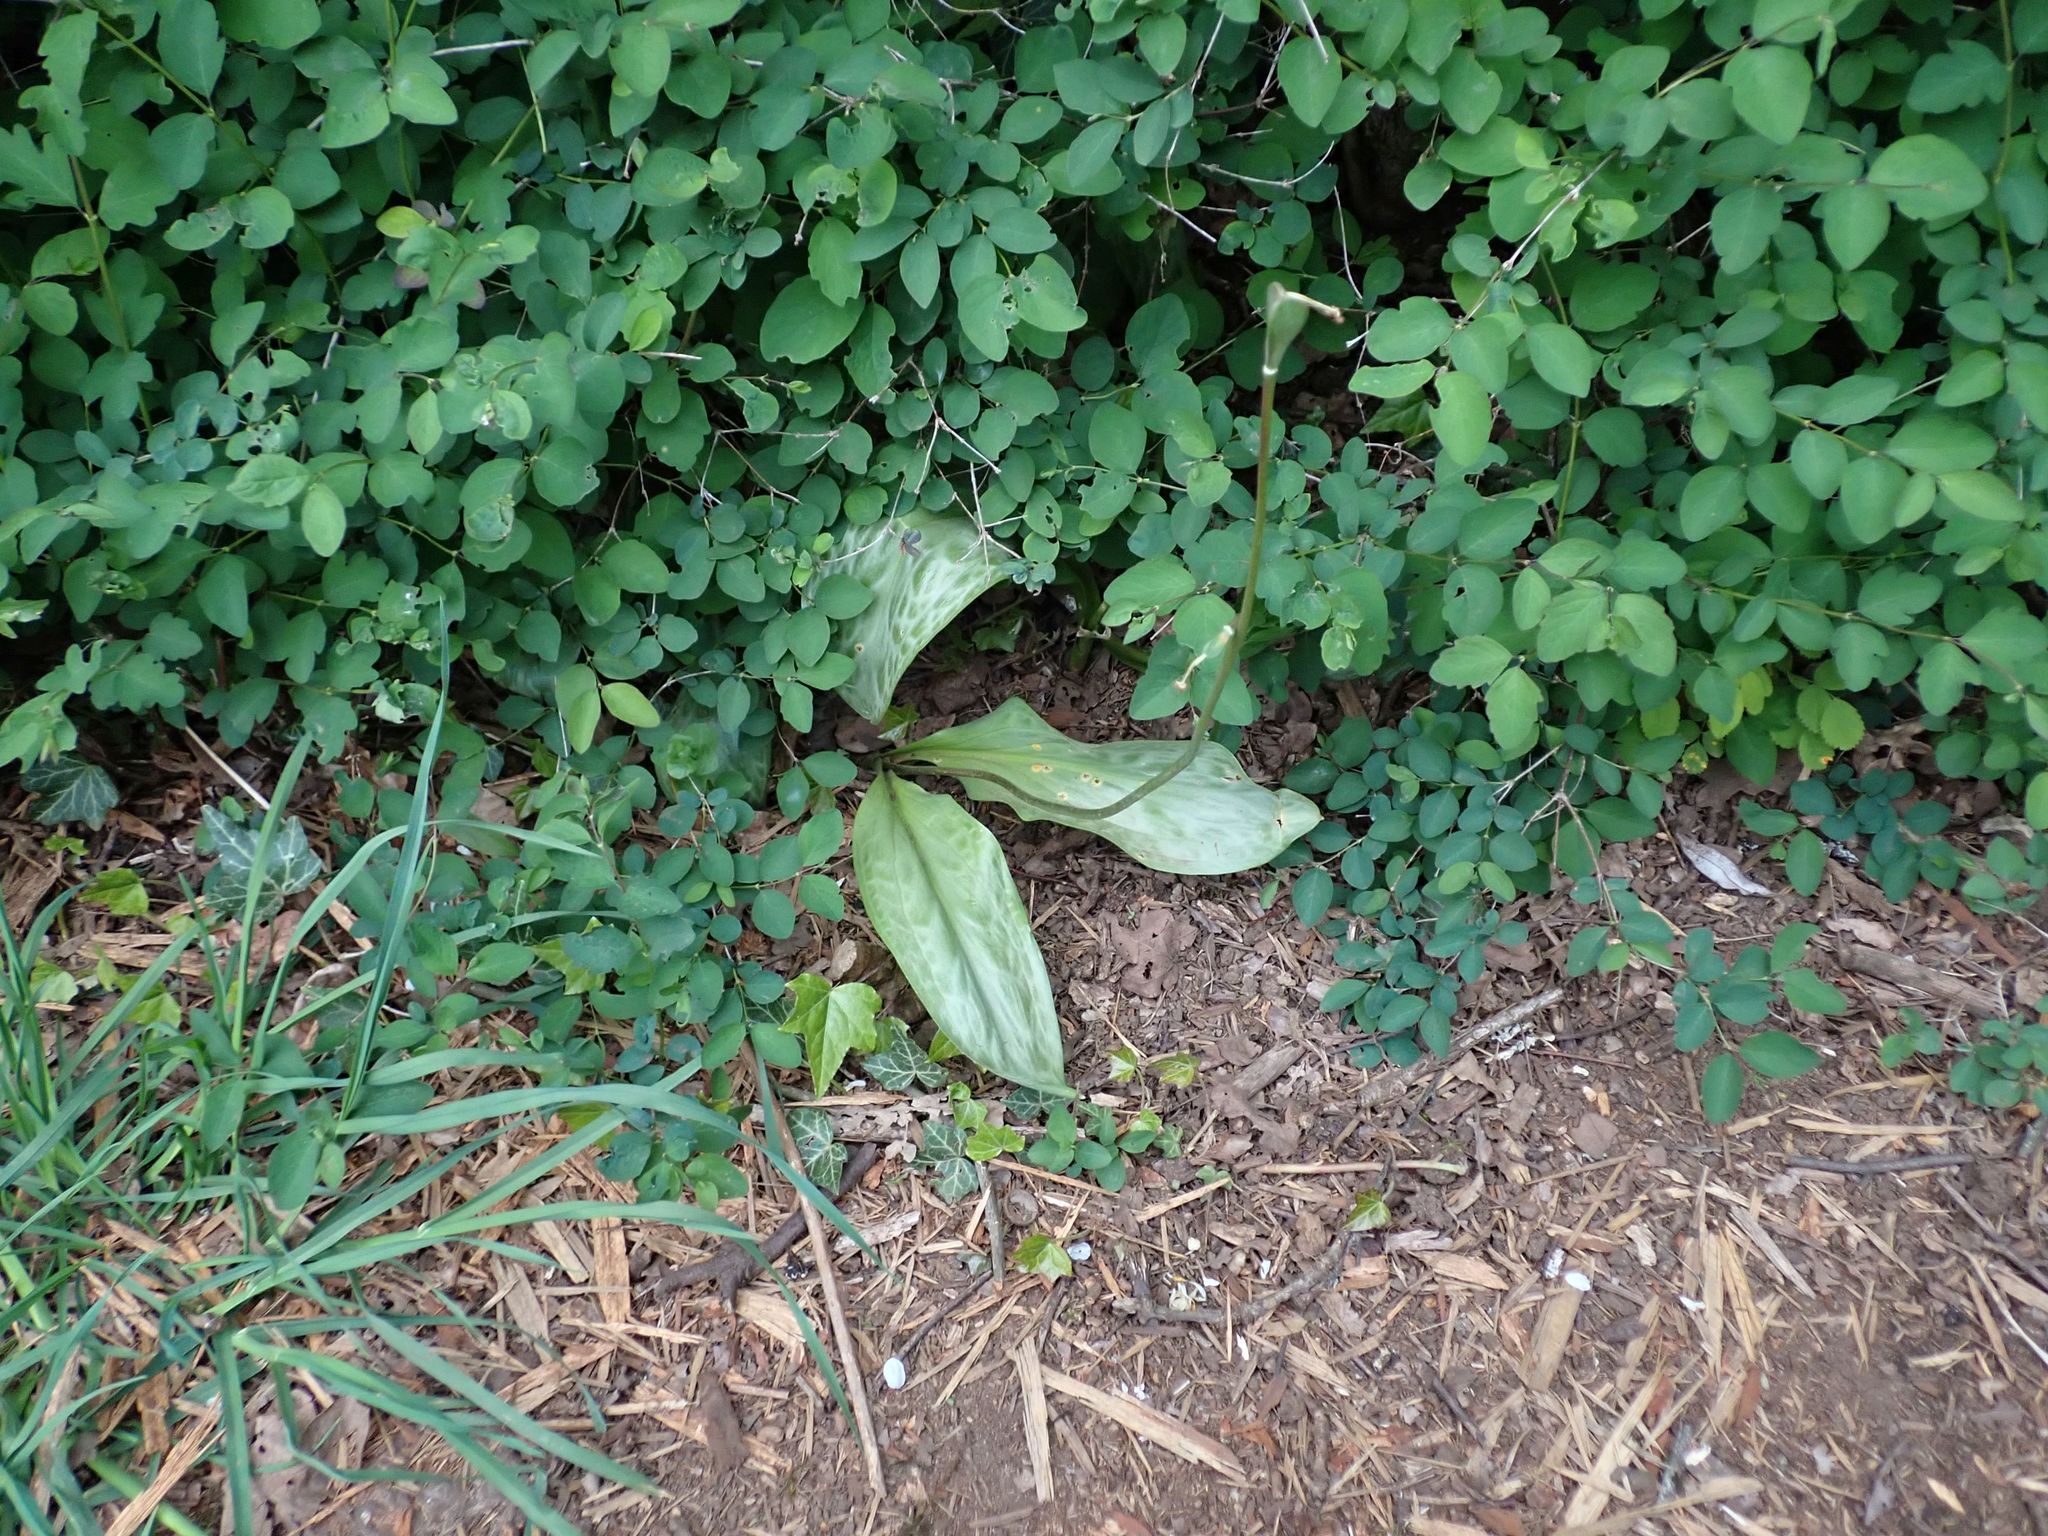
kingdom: Plantae
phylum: Tracheophyta
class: Liliopsida
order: Liliales
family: Liliaceae
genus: Erythronium
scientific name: Erythronium oregonum
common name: Giant adder's-tongue
